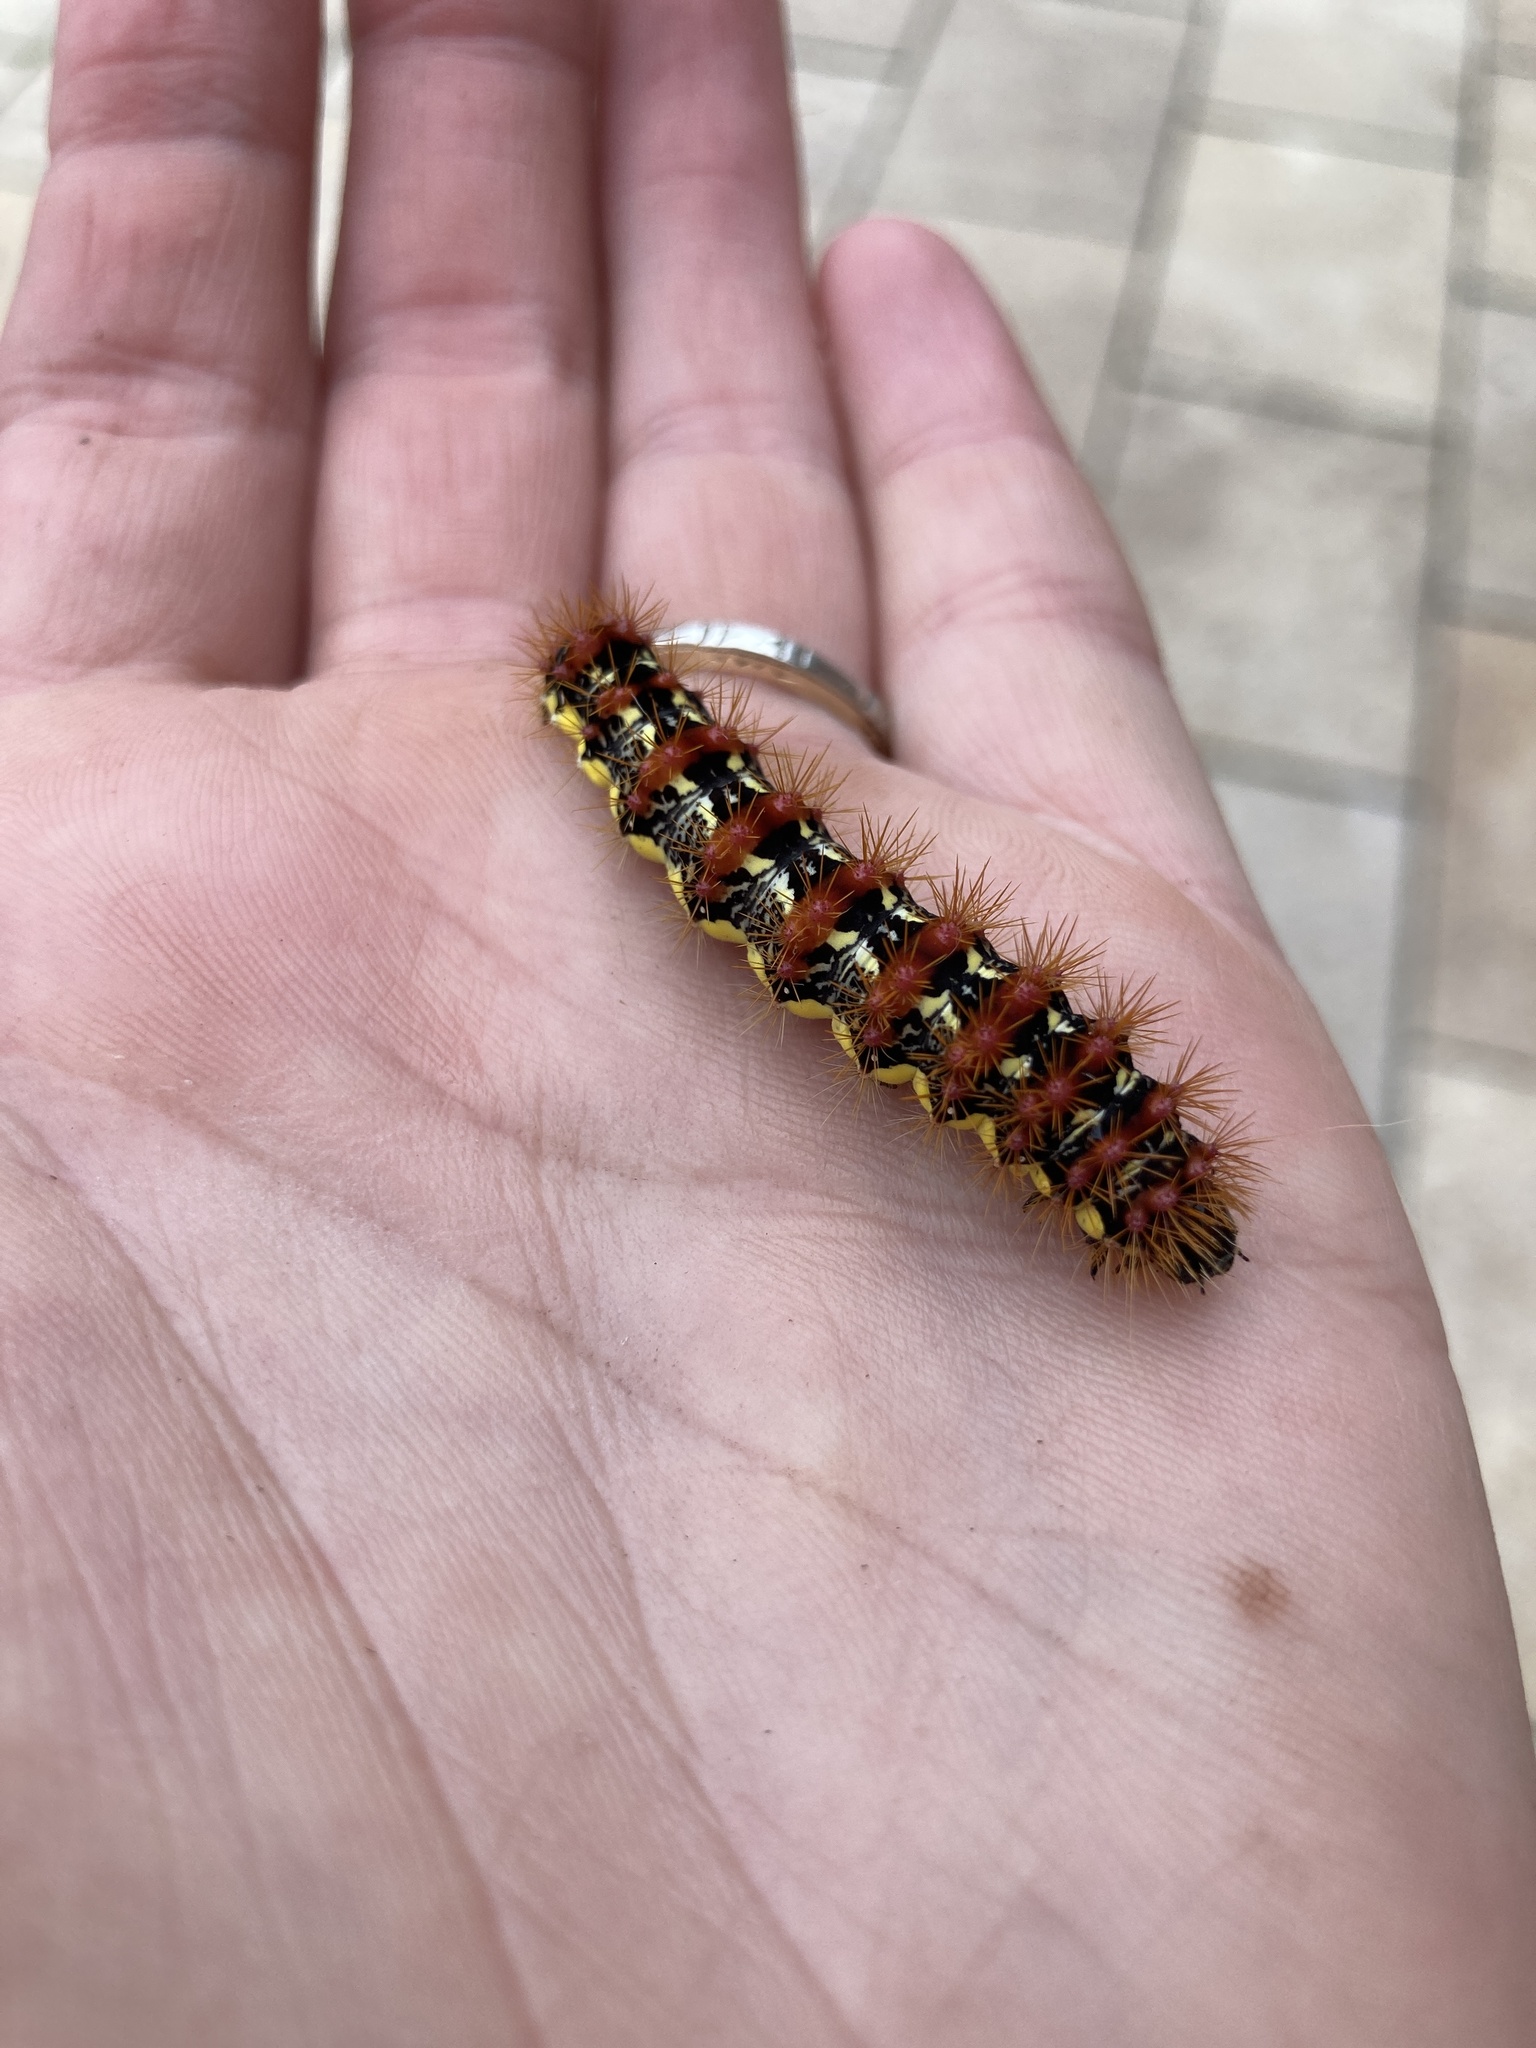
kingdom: Animalia
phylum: Arthropoda
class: Insecta
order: Lepidoptera
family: Noctuidae
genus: Acronicta
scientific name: Acronicta oblinita
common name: Smeared dagger
